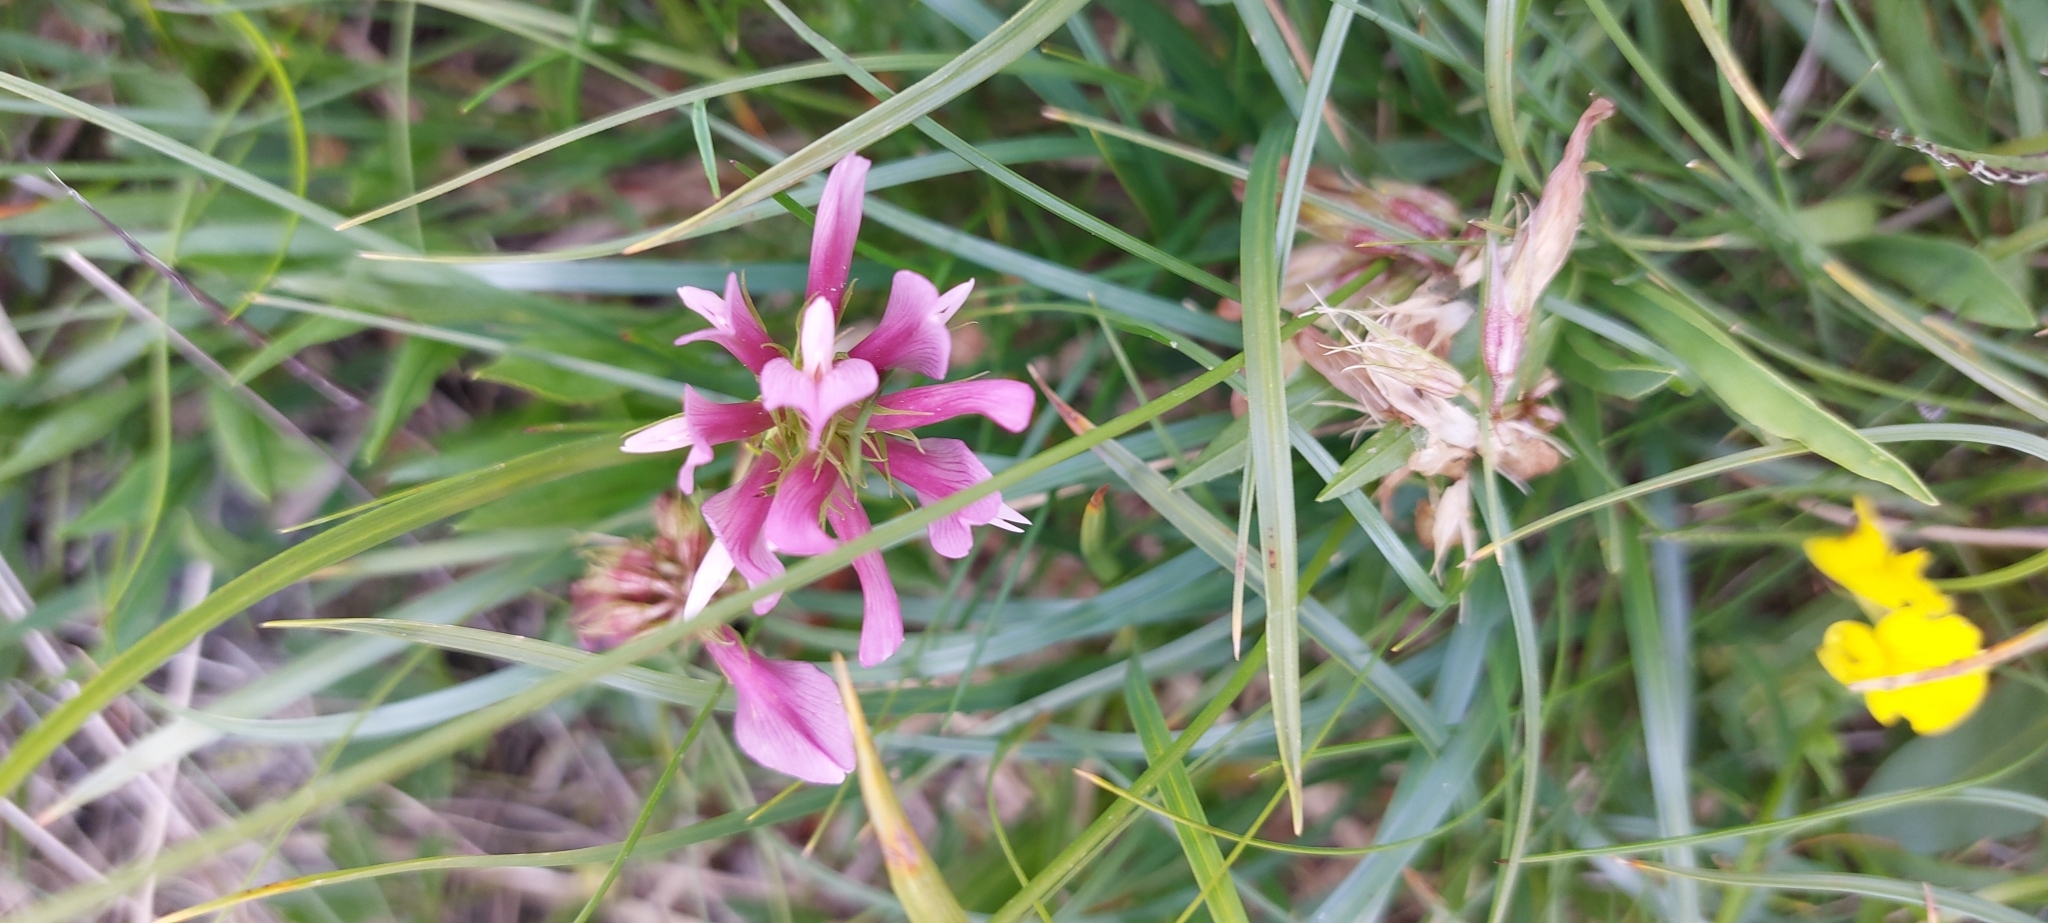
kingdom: Plantae
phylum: Tracheophyta
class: Magnoliopsida
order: Fabales
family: Fabaceae
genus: Trifolium
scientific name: Trifolium alpinum
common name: Alpine clover
